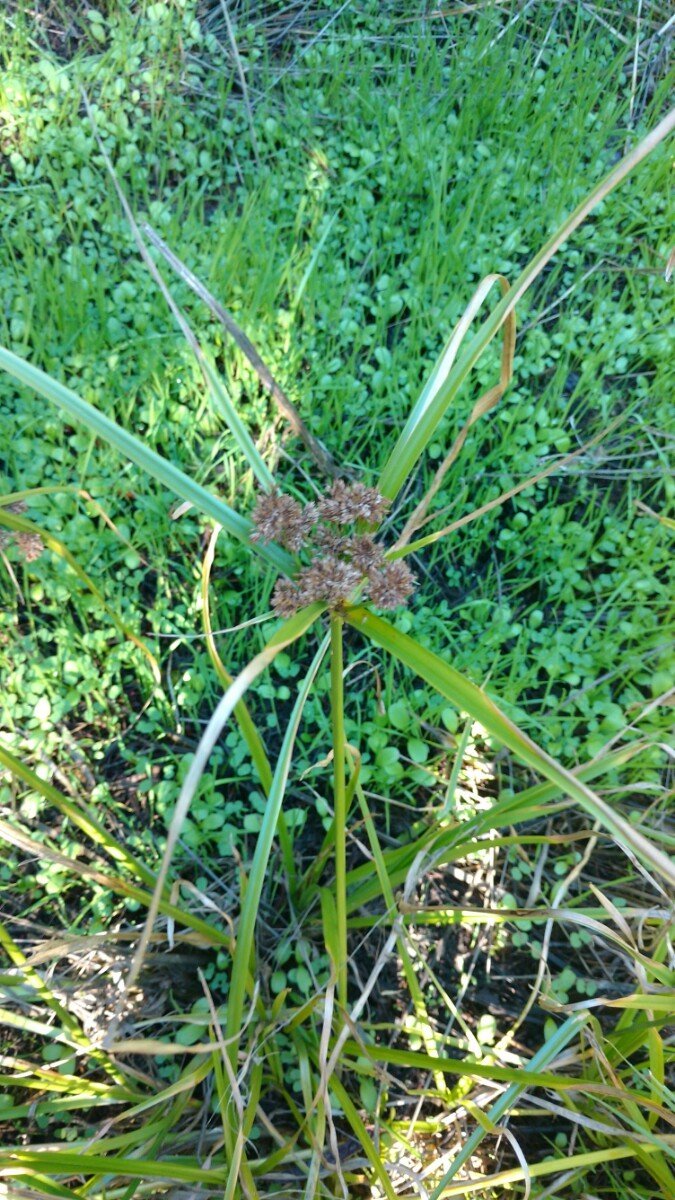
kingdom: Plantae
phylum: Tracheophyta
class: Liliopsida
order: Poales
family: Cyperaceae
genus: Cyperus
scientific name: Cyperus eragrostis
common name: Tall flatsedge
